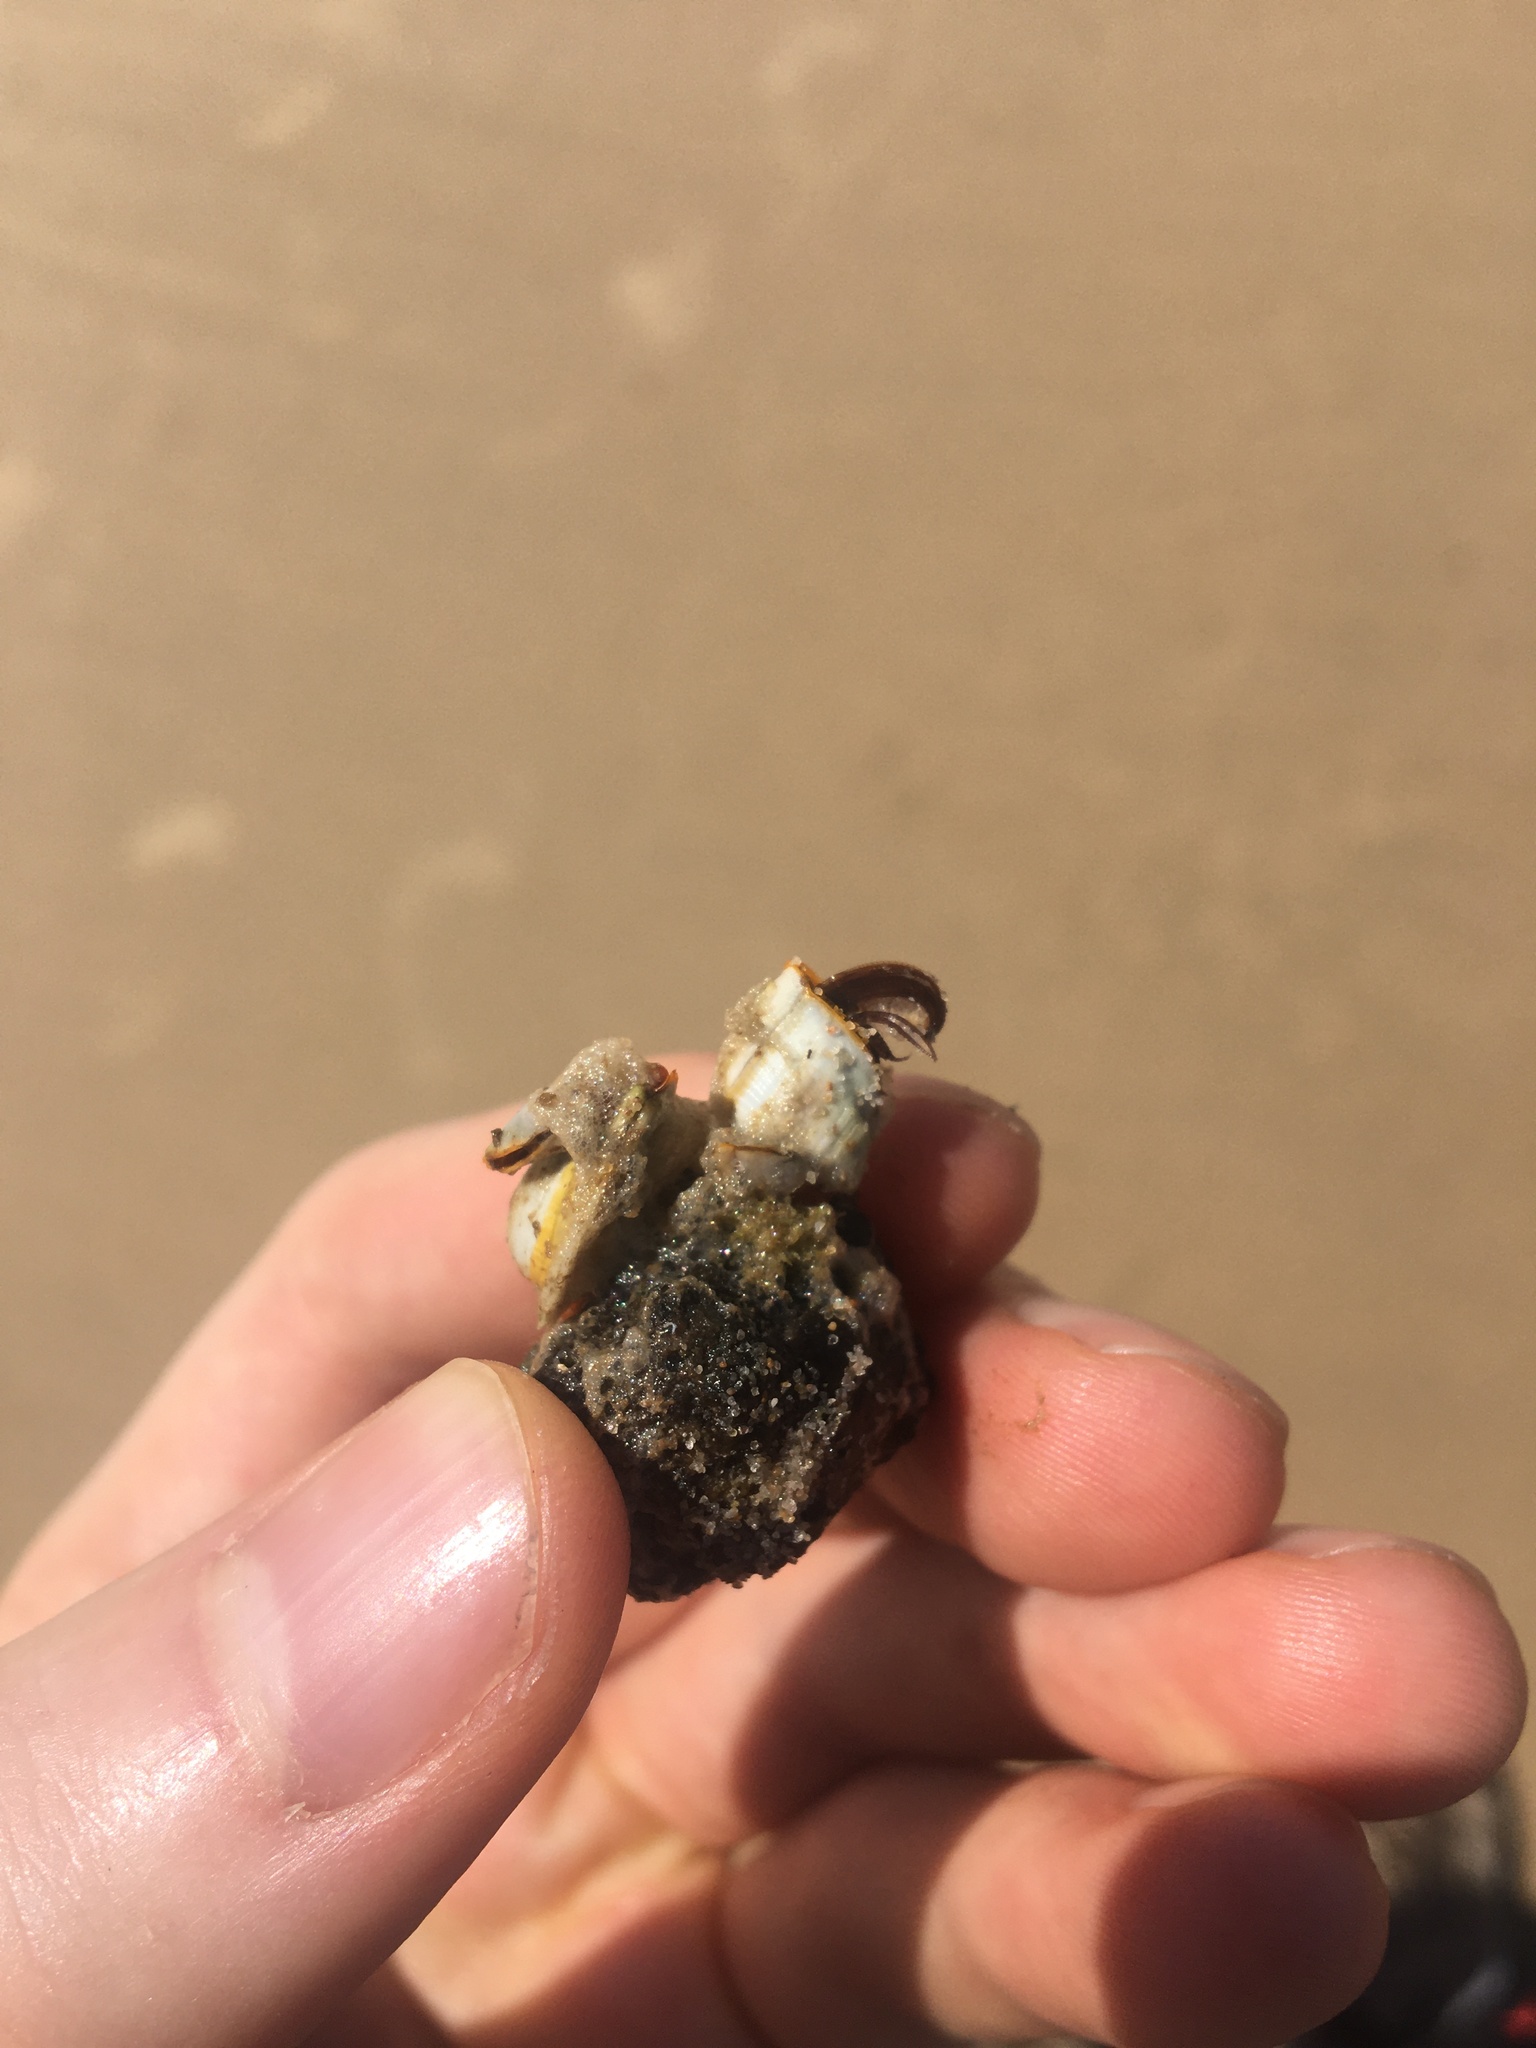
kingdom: Animalia
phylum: Arthropoda
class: Maxillopoda
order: Pedunculata
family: Lepadidae
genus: Lepas
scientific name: Lepas anserifera
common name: Goose barnacle
